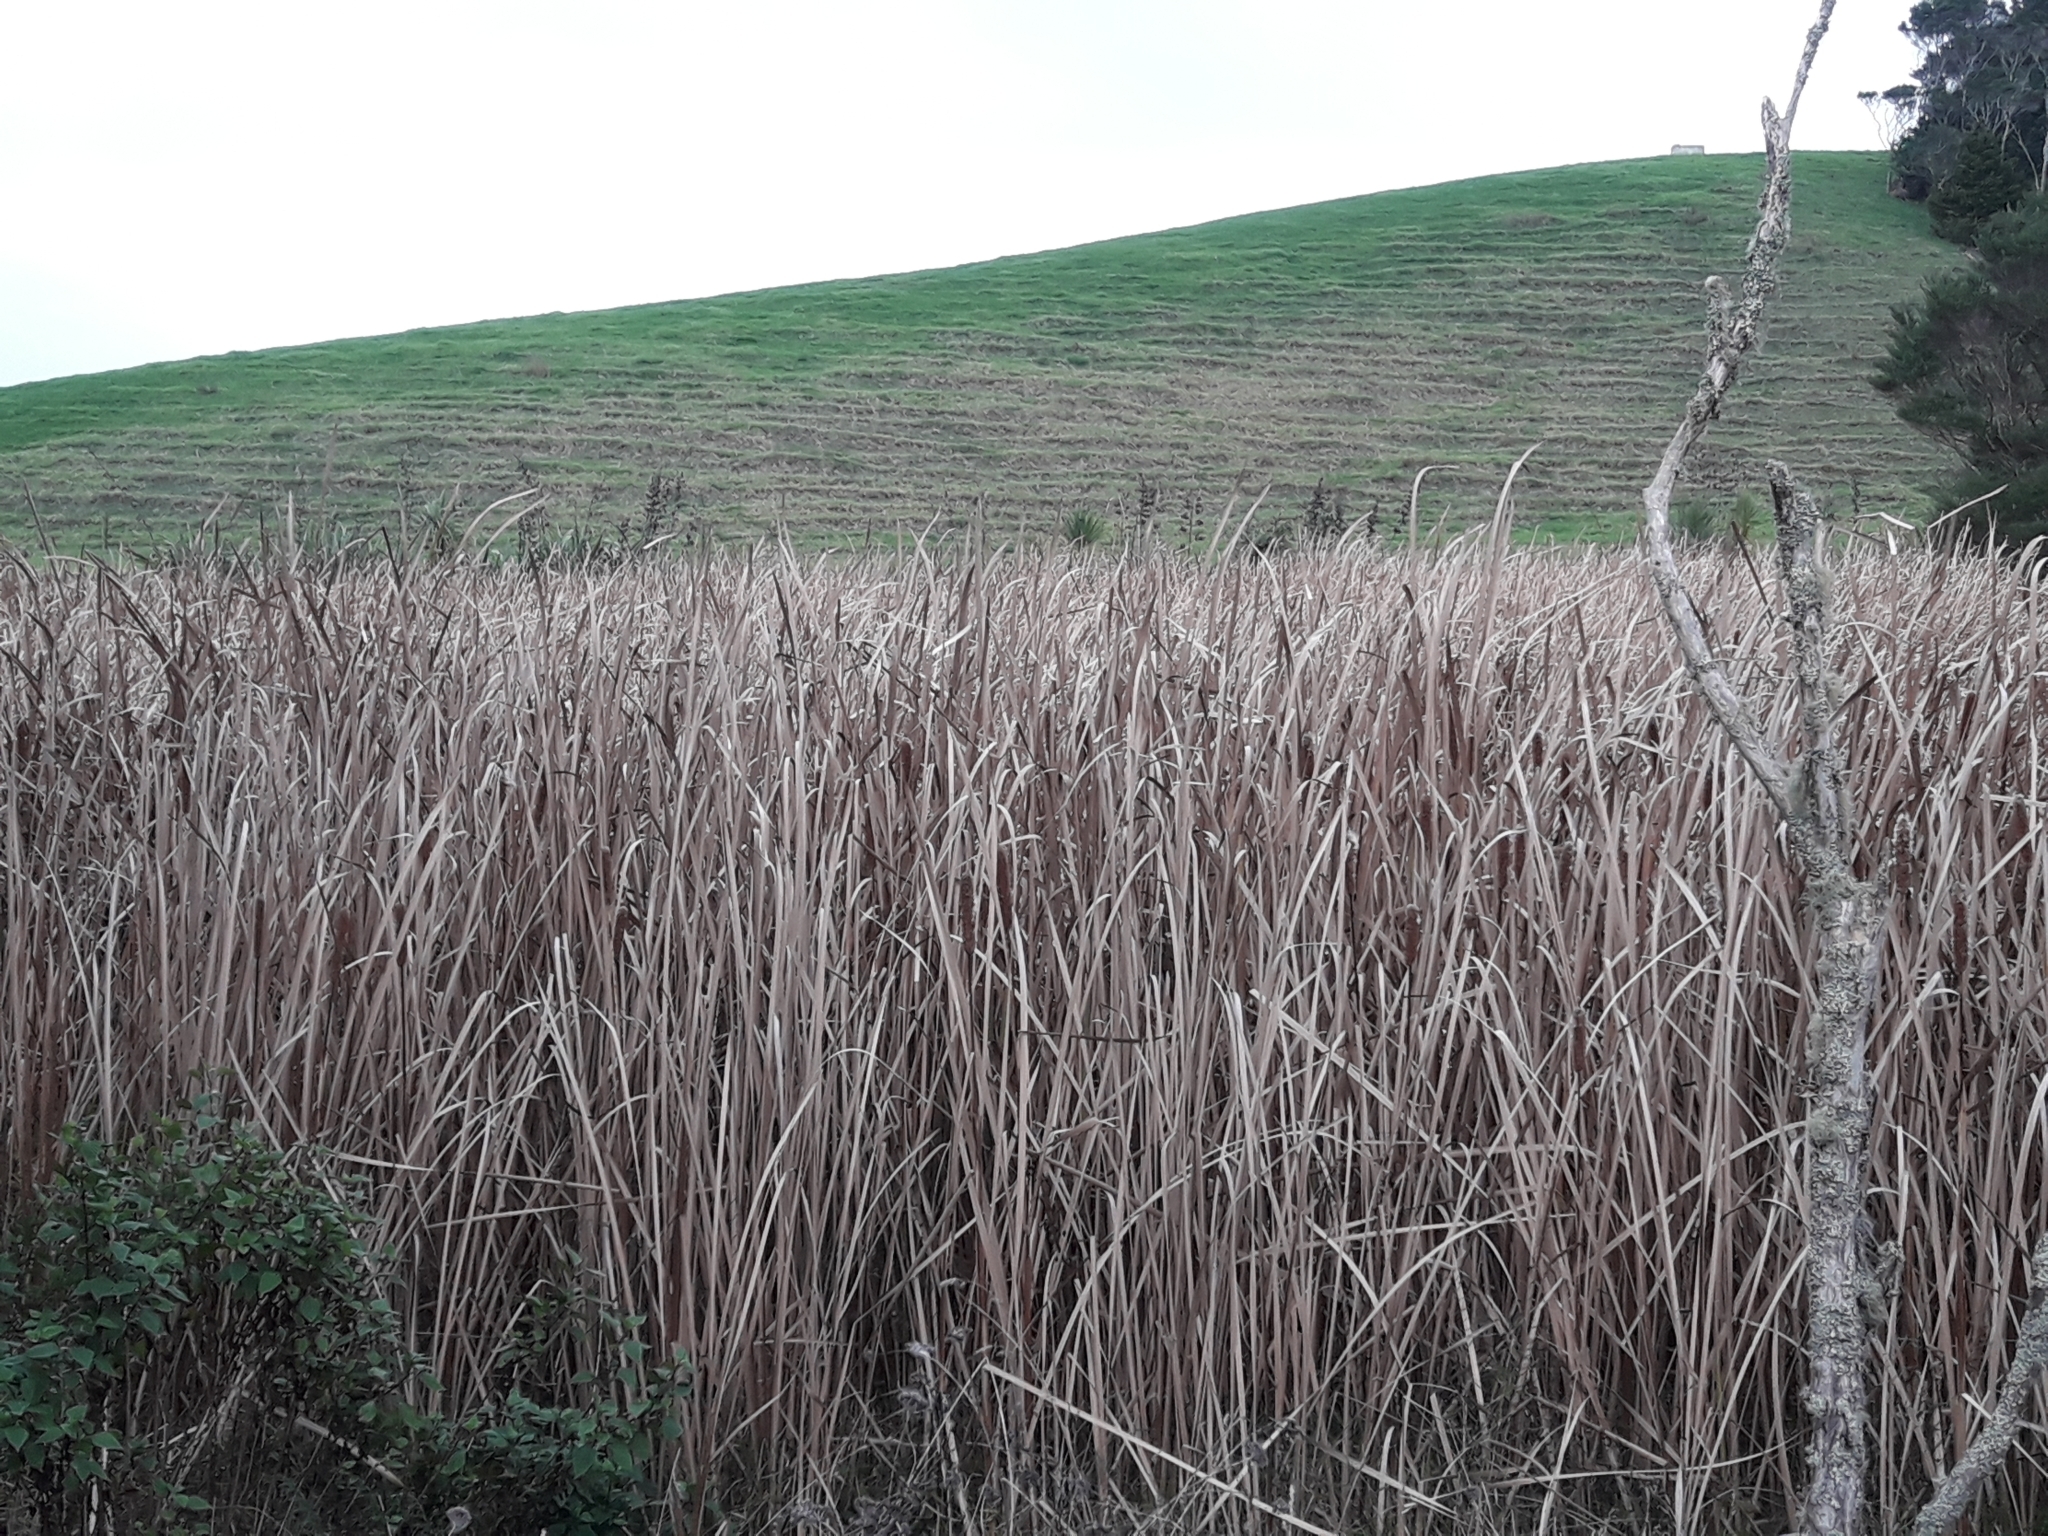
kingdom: Plantae
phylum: Tracheophyta
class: Liliopsida
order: Poales
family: Typhaceae
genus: Typha
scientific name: Typha orientalis
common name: Bullrush
